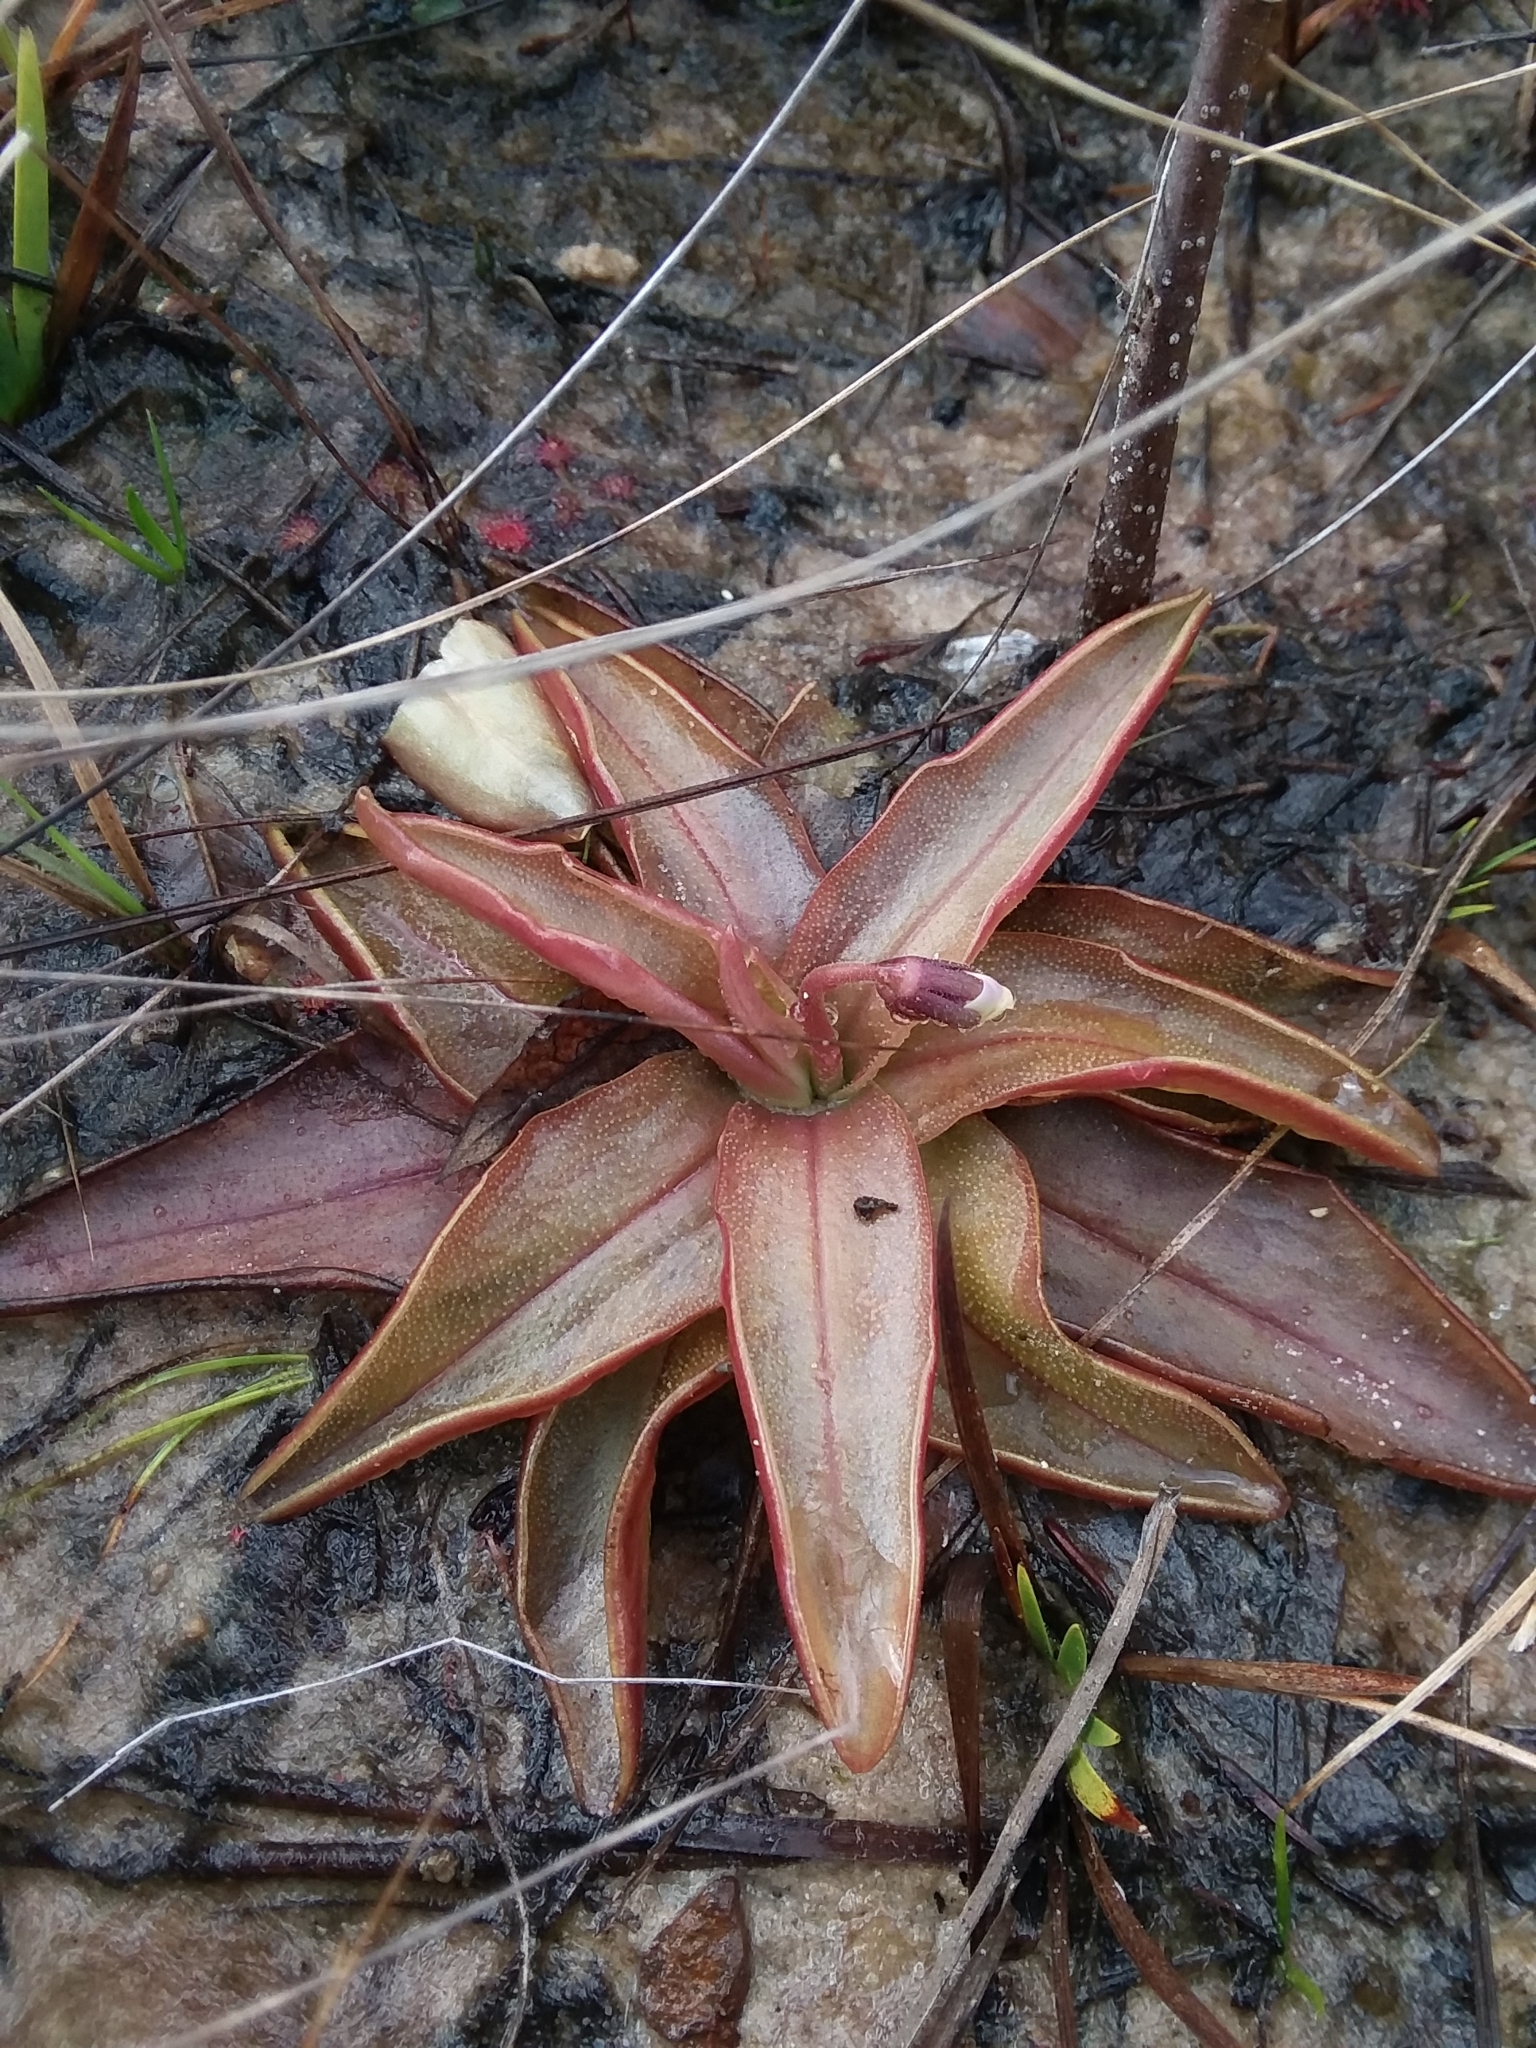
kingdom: Plantae
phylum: Tracheophyta
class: Magnoliopsida
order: Lamiales
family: Lentibulariaceae
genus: Pinguicula
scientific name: Pinguicula planifolia
